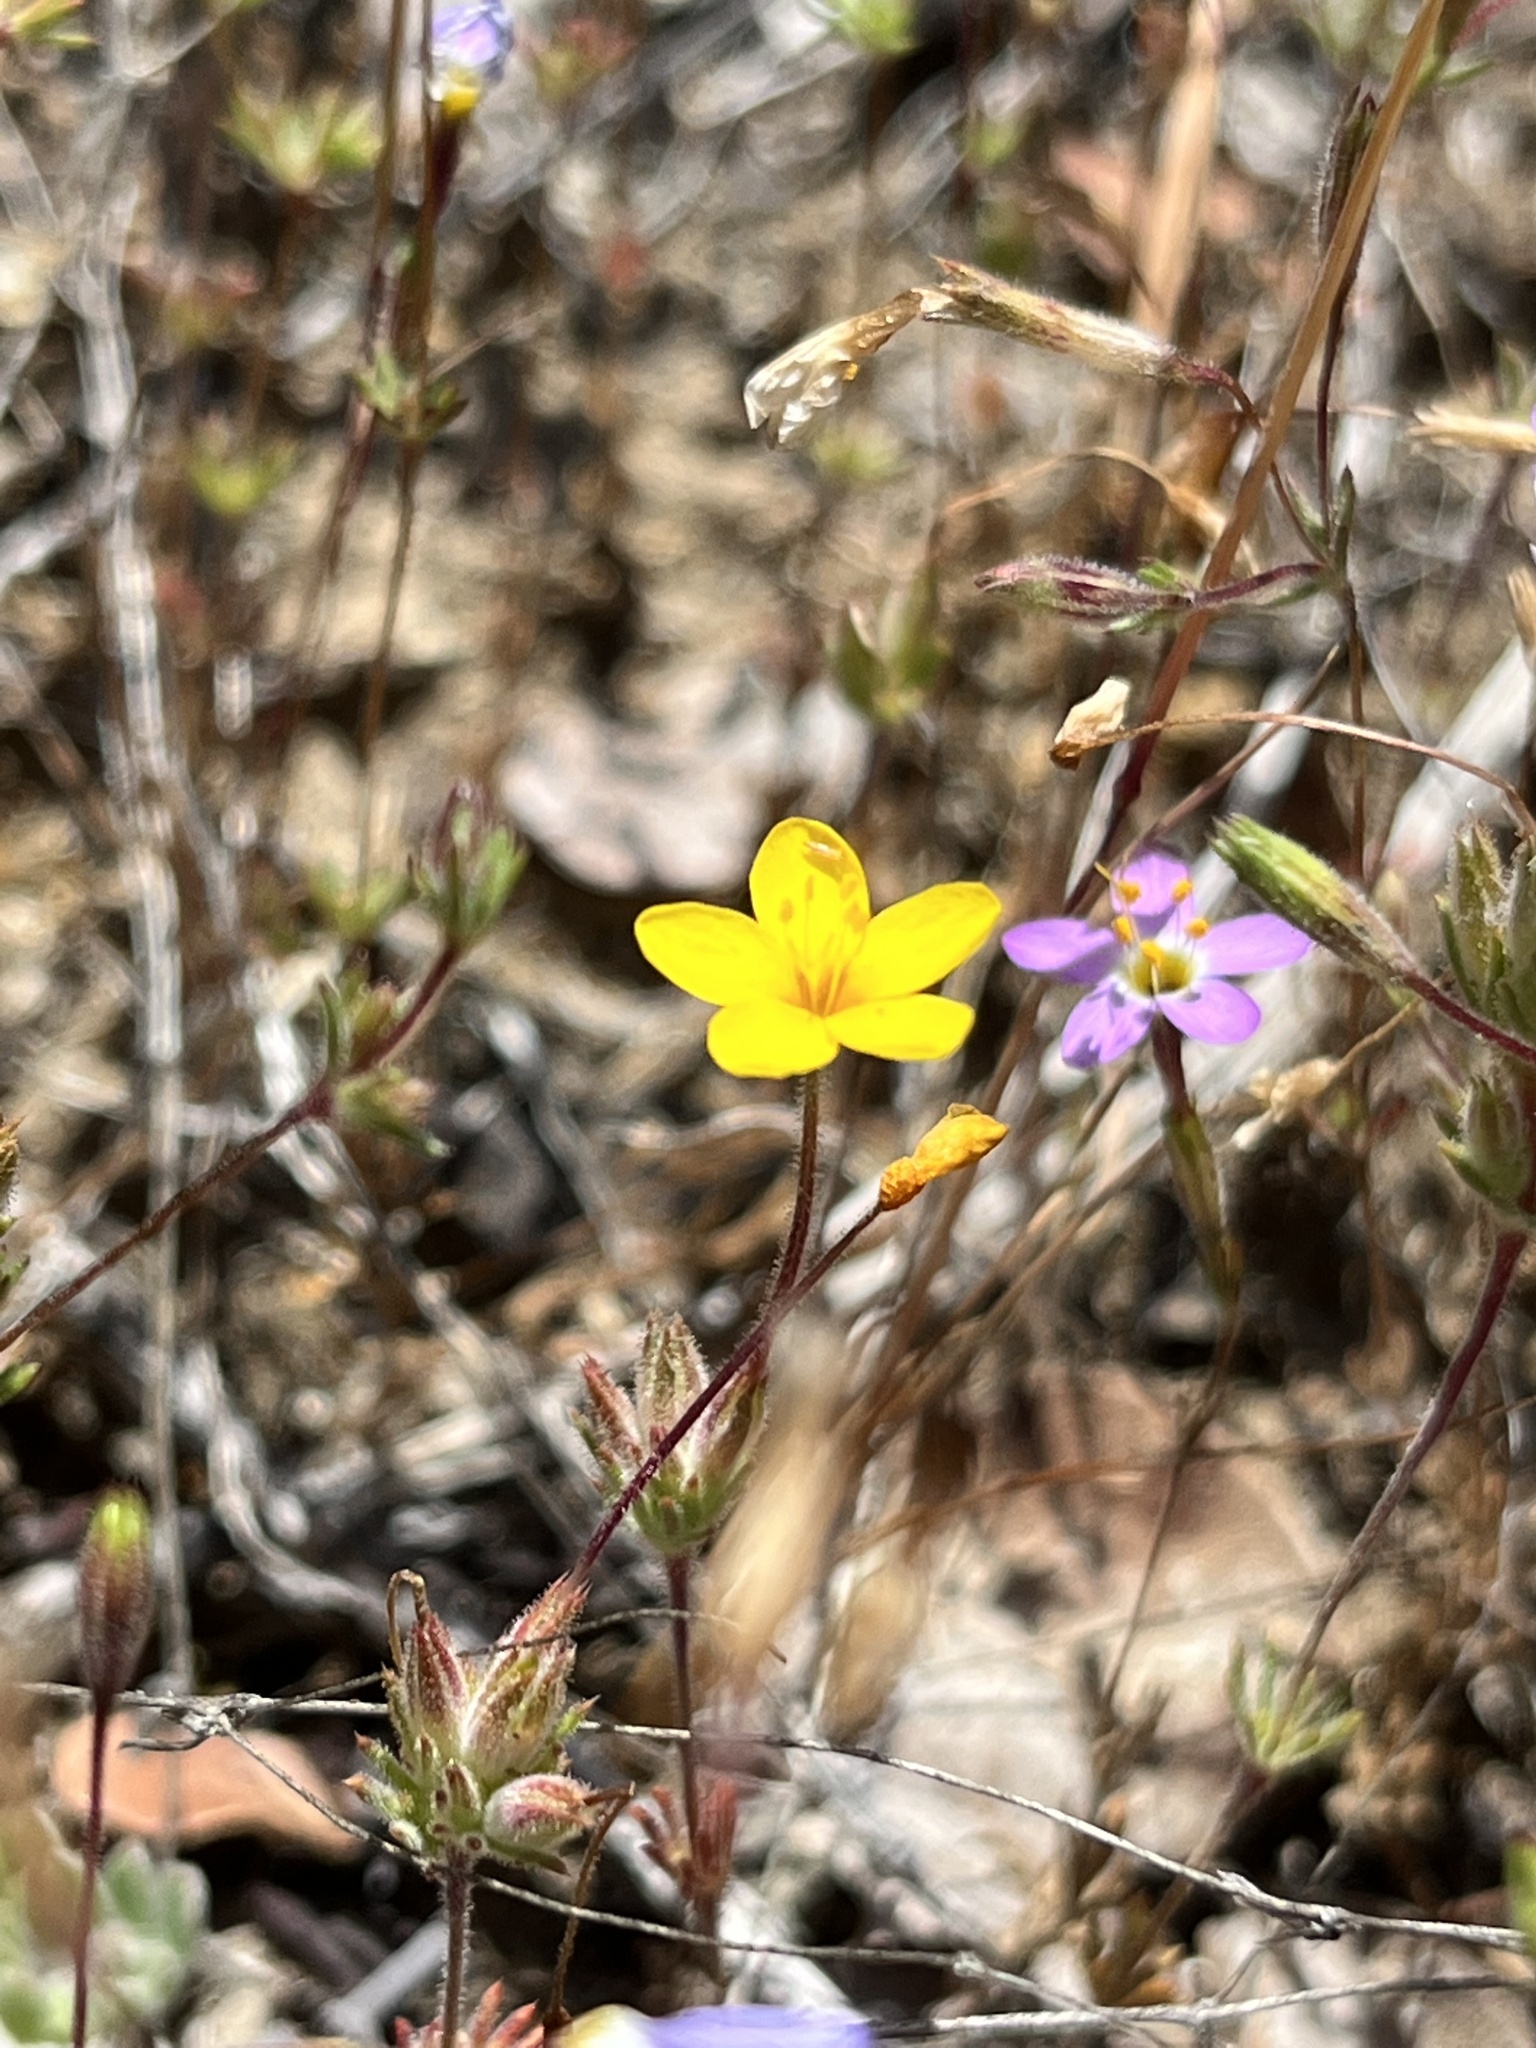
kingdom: Plantae
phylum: Tracheophyta
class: Magnoliopsida
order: Ericales
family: Polemoniaceae
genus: Leptosiphon
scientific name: Leptosiphon parviflorus
